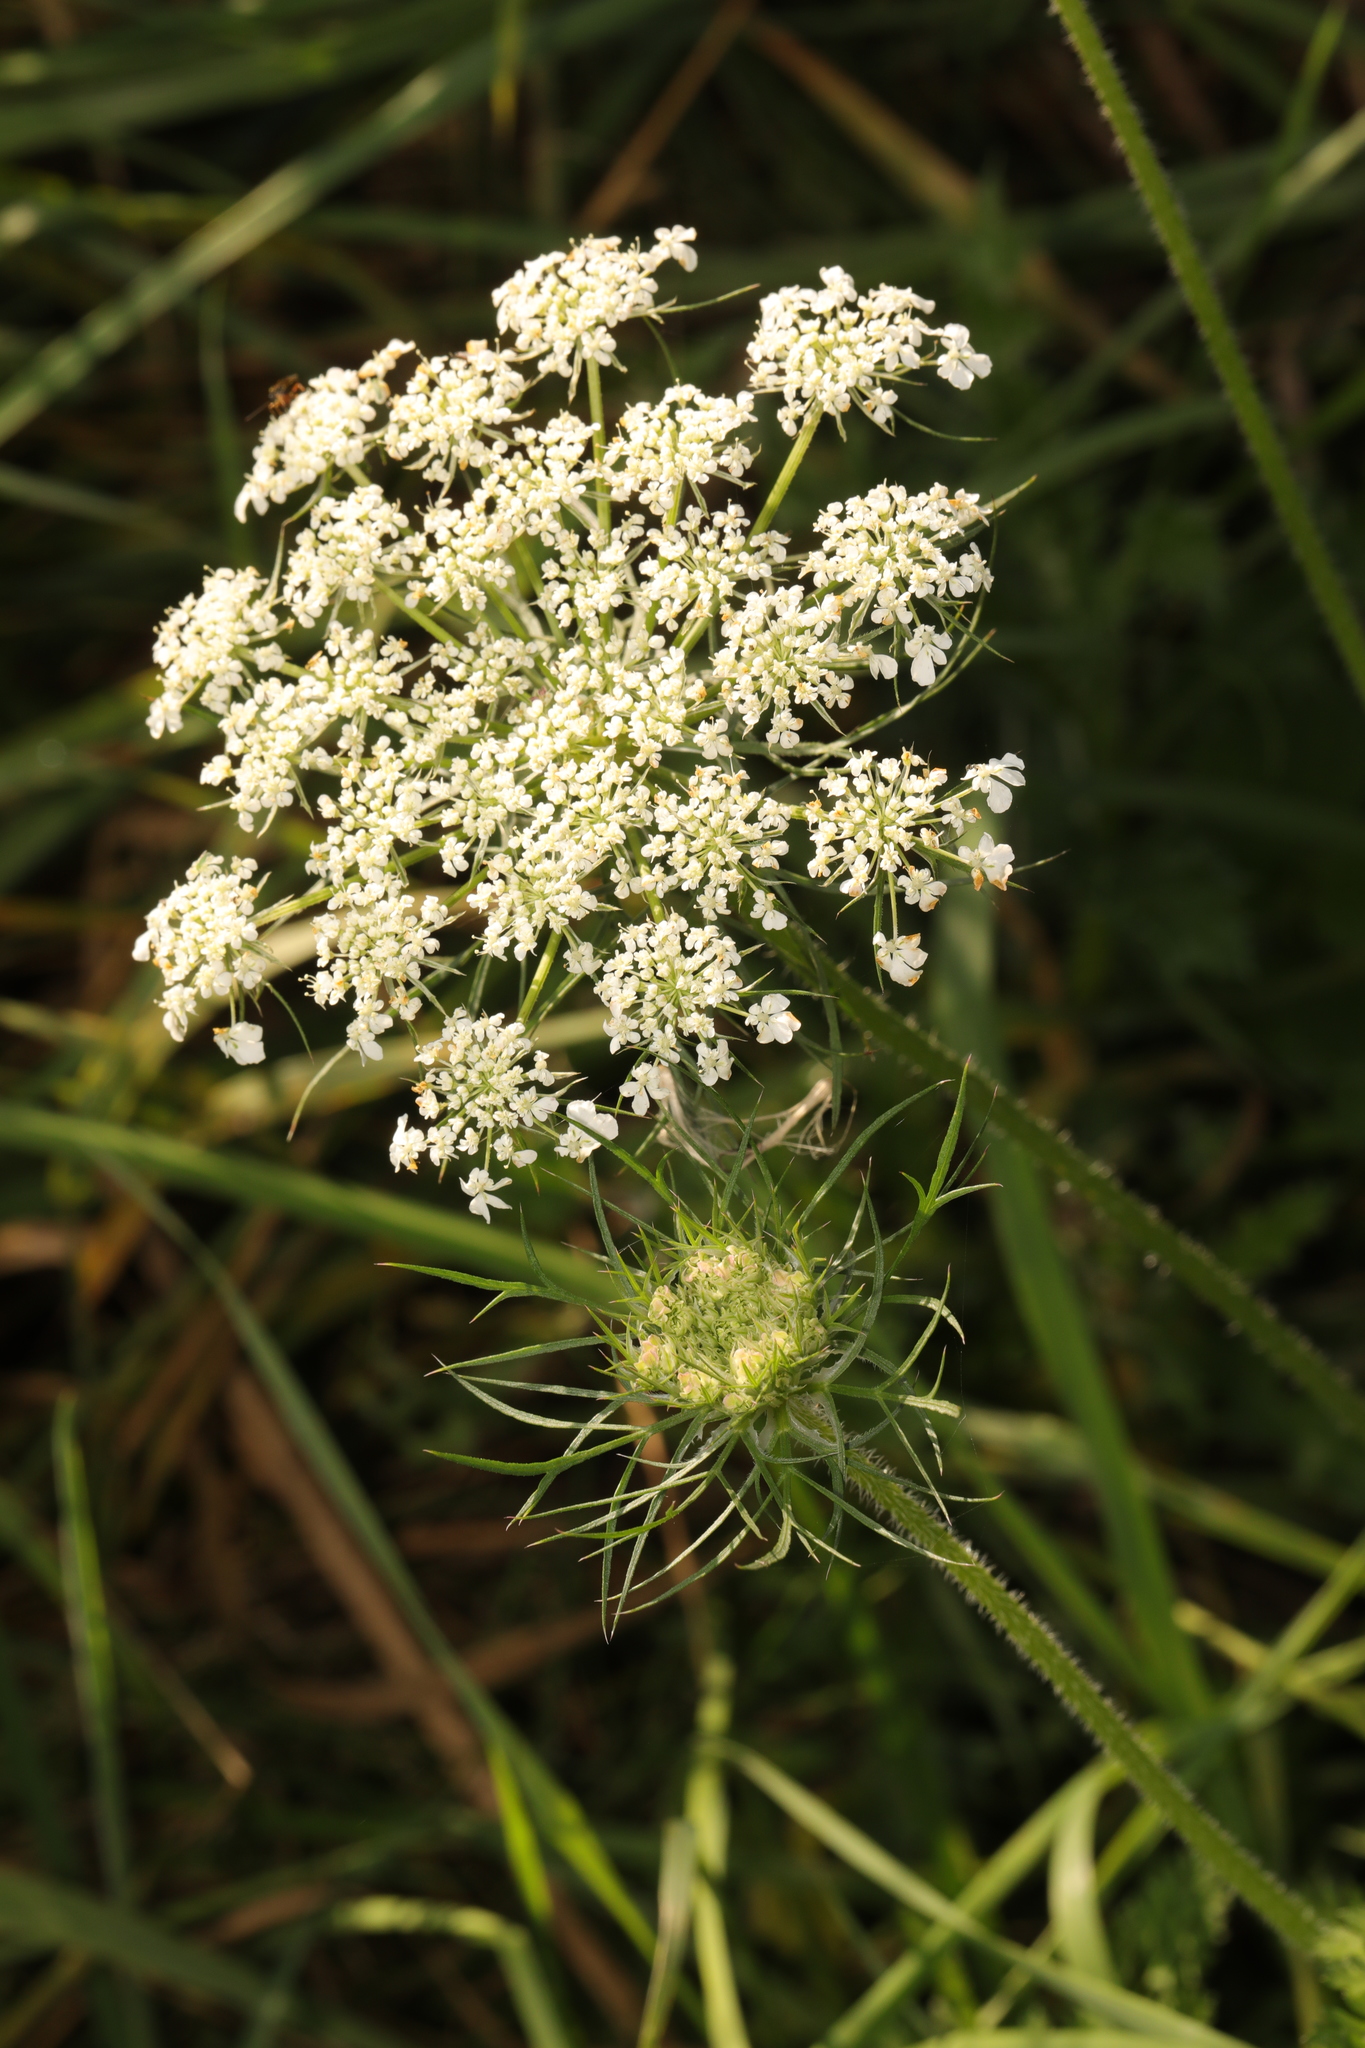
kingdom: Plantae
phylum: Tracheophyta
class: Magnoliopsida
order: Apiales
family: Apiaceae
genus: Daucus
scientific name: Daucus carota
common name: Wild carrot
